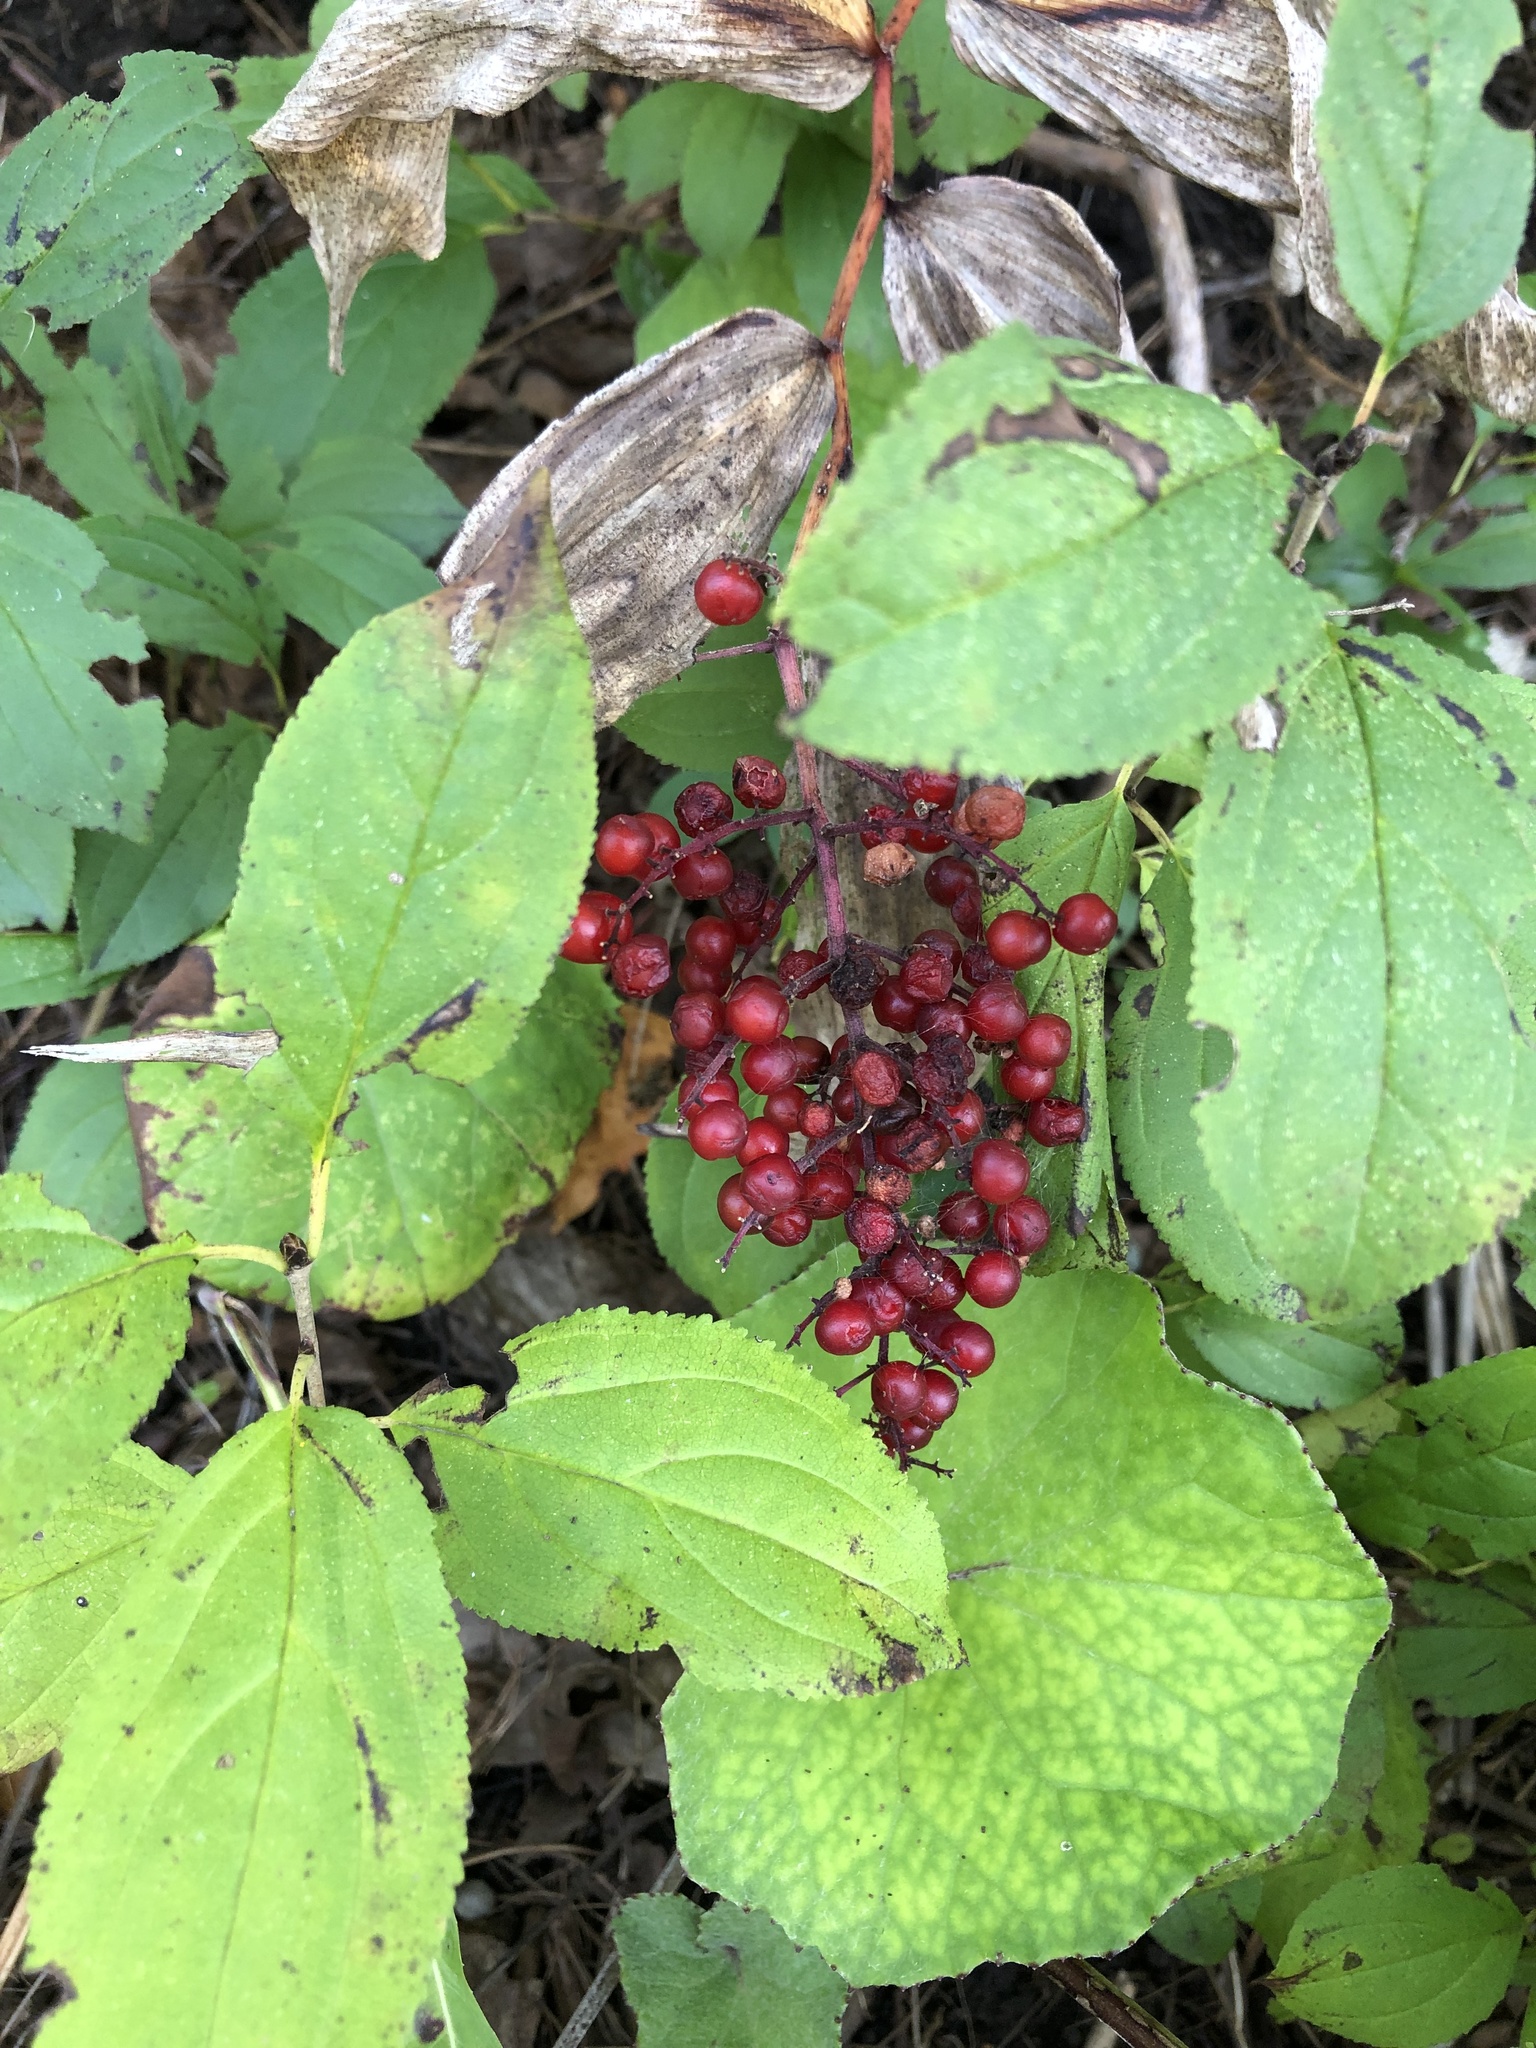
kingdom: Plantae
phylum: Tracheophyta
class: Liliopsida
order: Asparagales
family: Asparagaceae
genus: Maianthemum
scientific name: Maianthemum racemosum
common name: False spikenard
